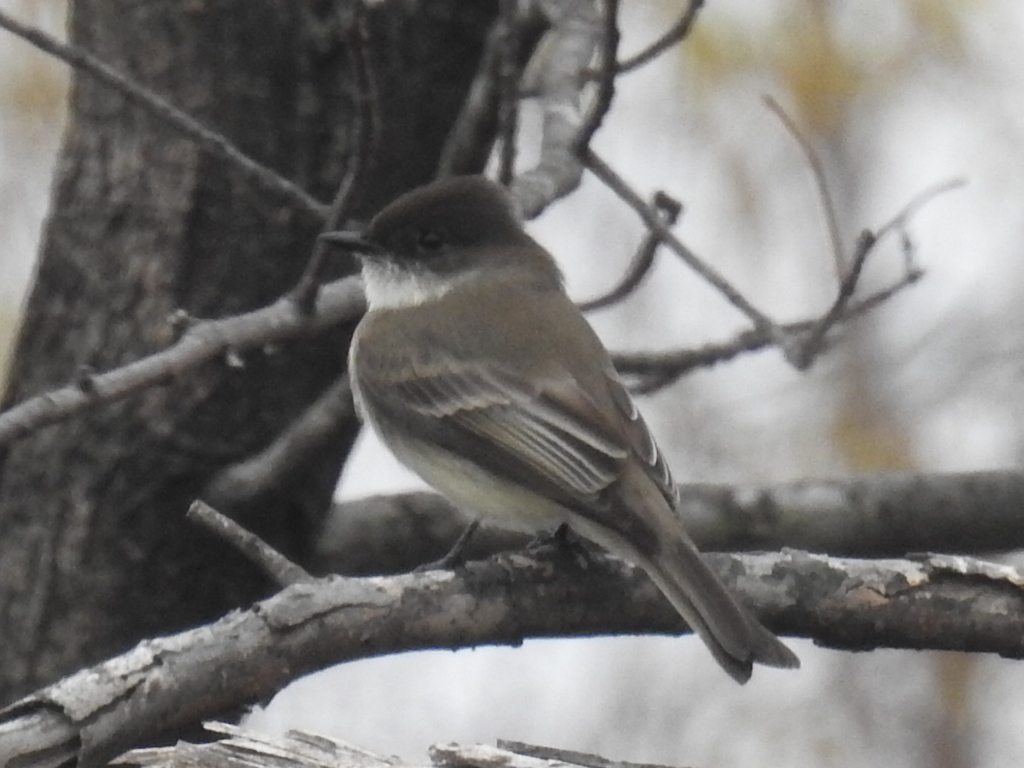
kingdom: Animalia
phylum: Chordata
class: Aves
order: Passeriformes
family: Tyrannidae
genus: Sayornis
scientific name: Sayornis phoebe
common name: Eastern phoebe
